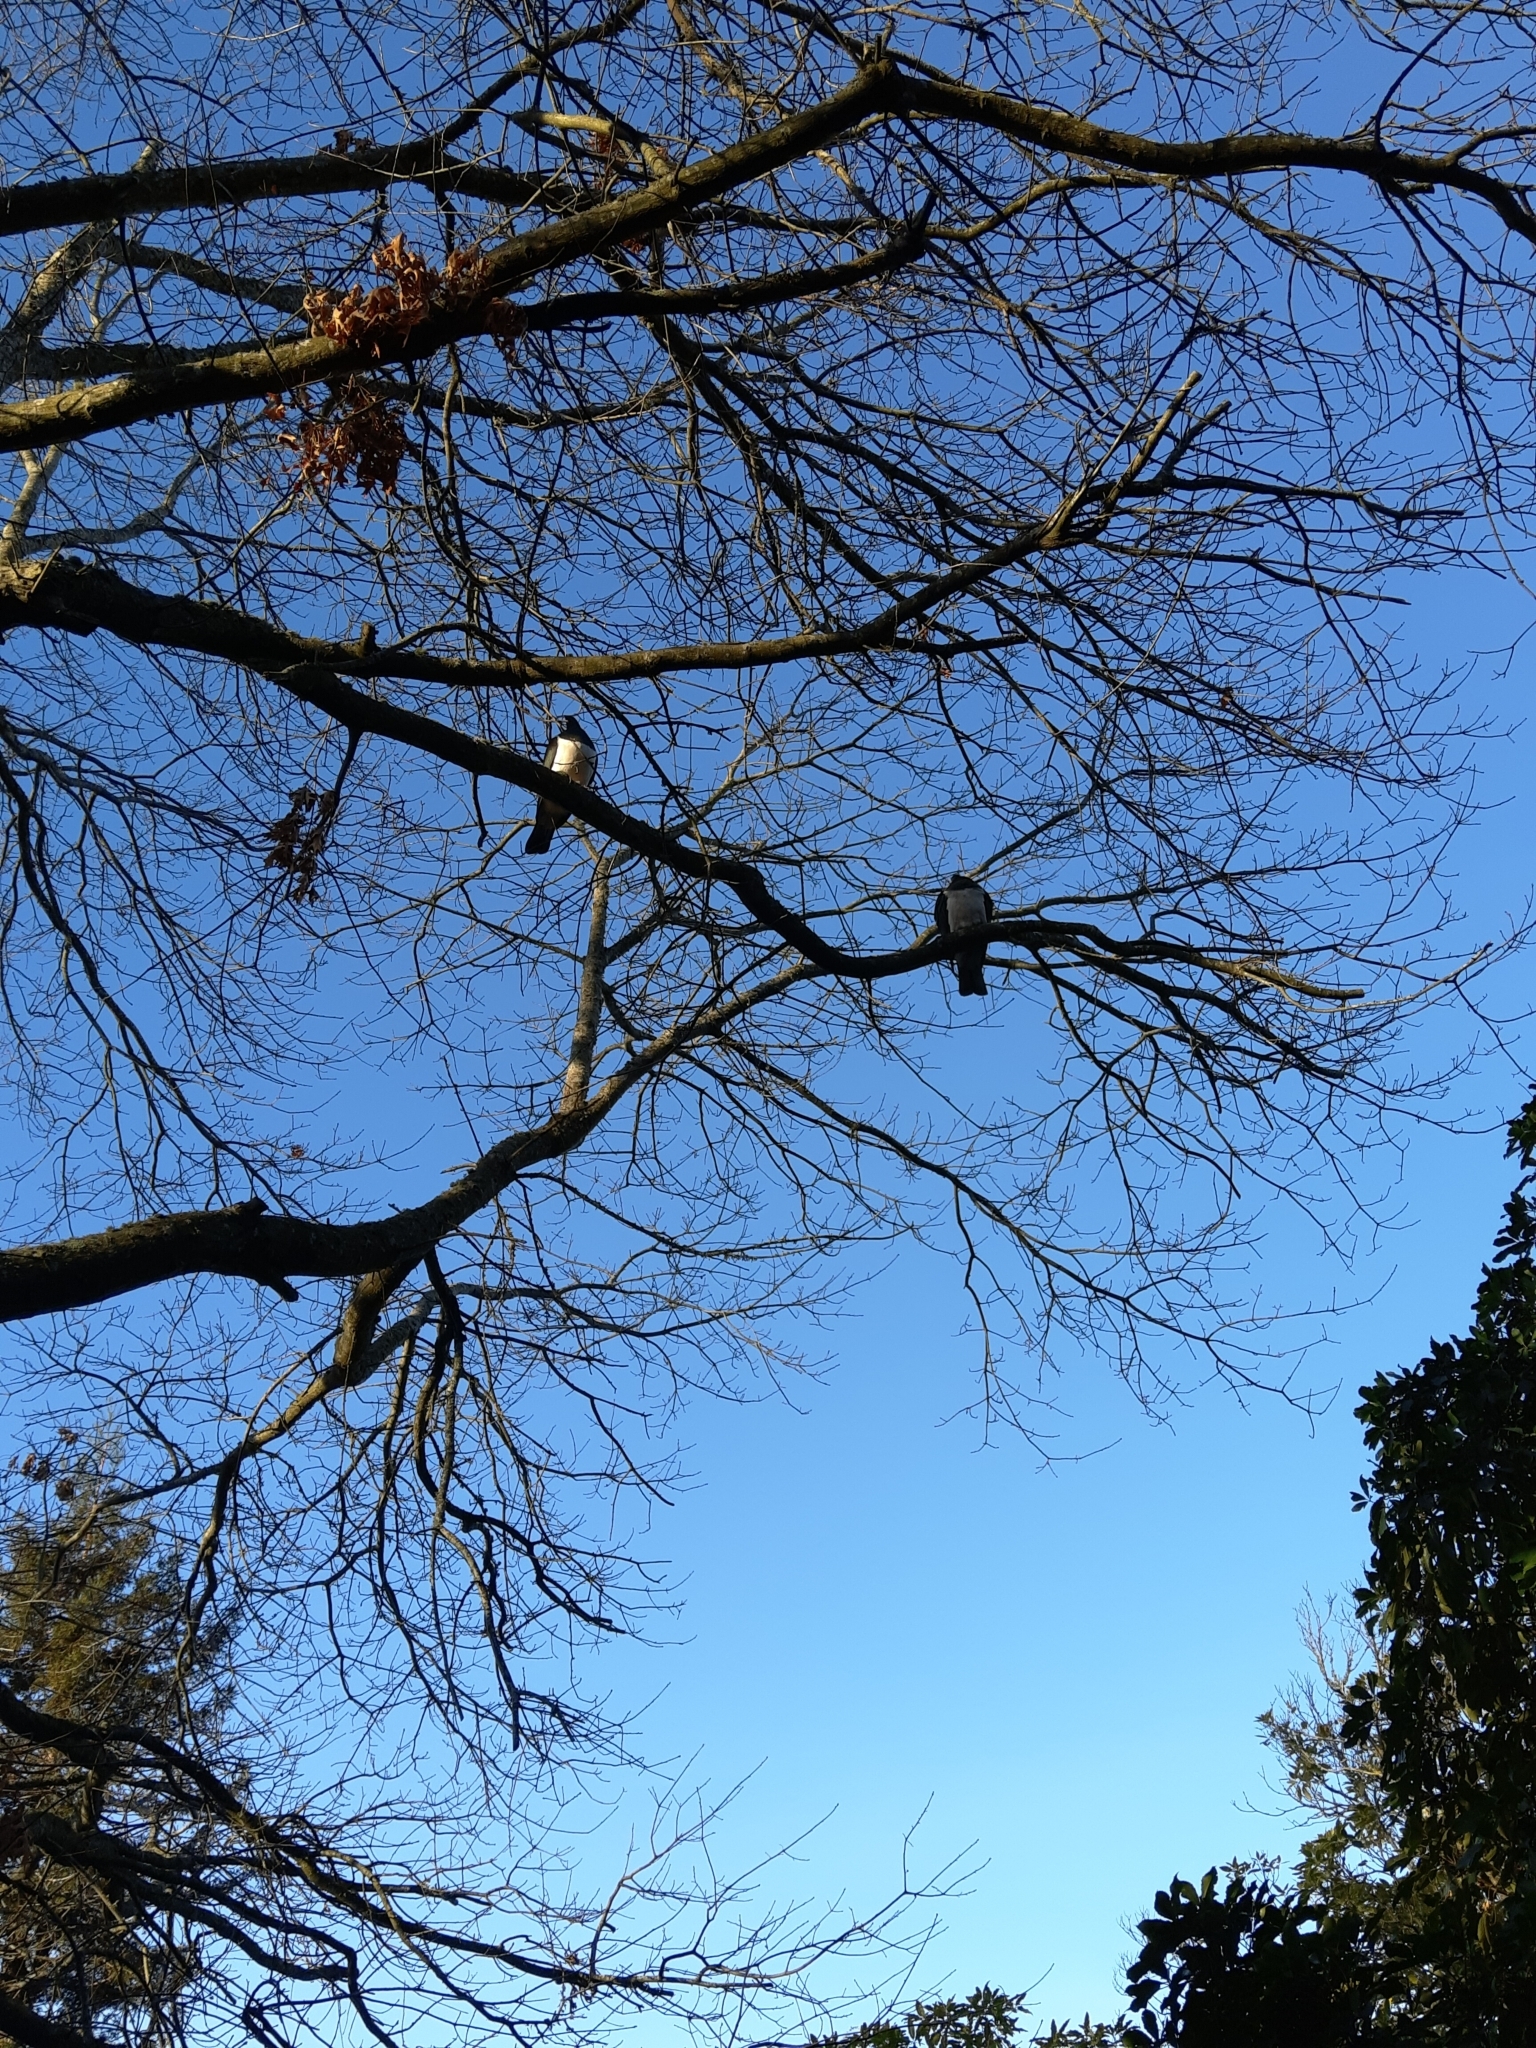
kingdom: Animalia
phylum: Chordata
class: Aves
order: Columbiformes
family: Columbidae
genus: Hemiphaga
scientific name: Hemiphaga novaeseelandiae
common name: New zealand pigeon
